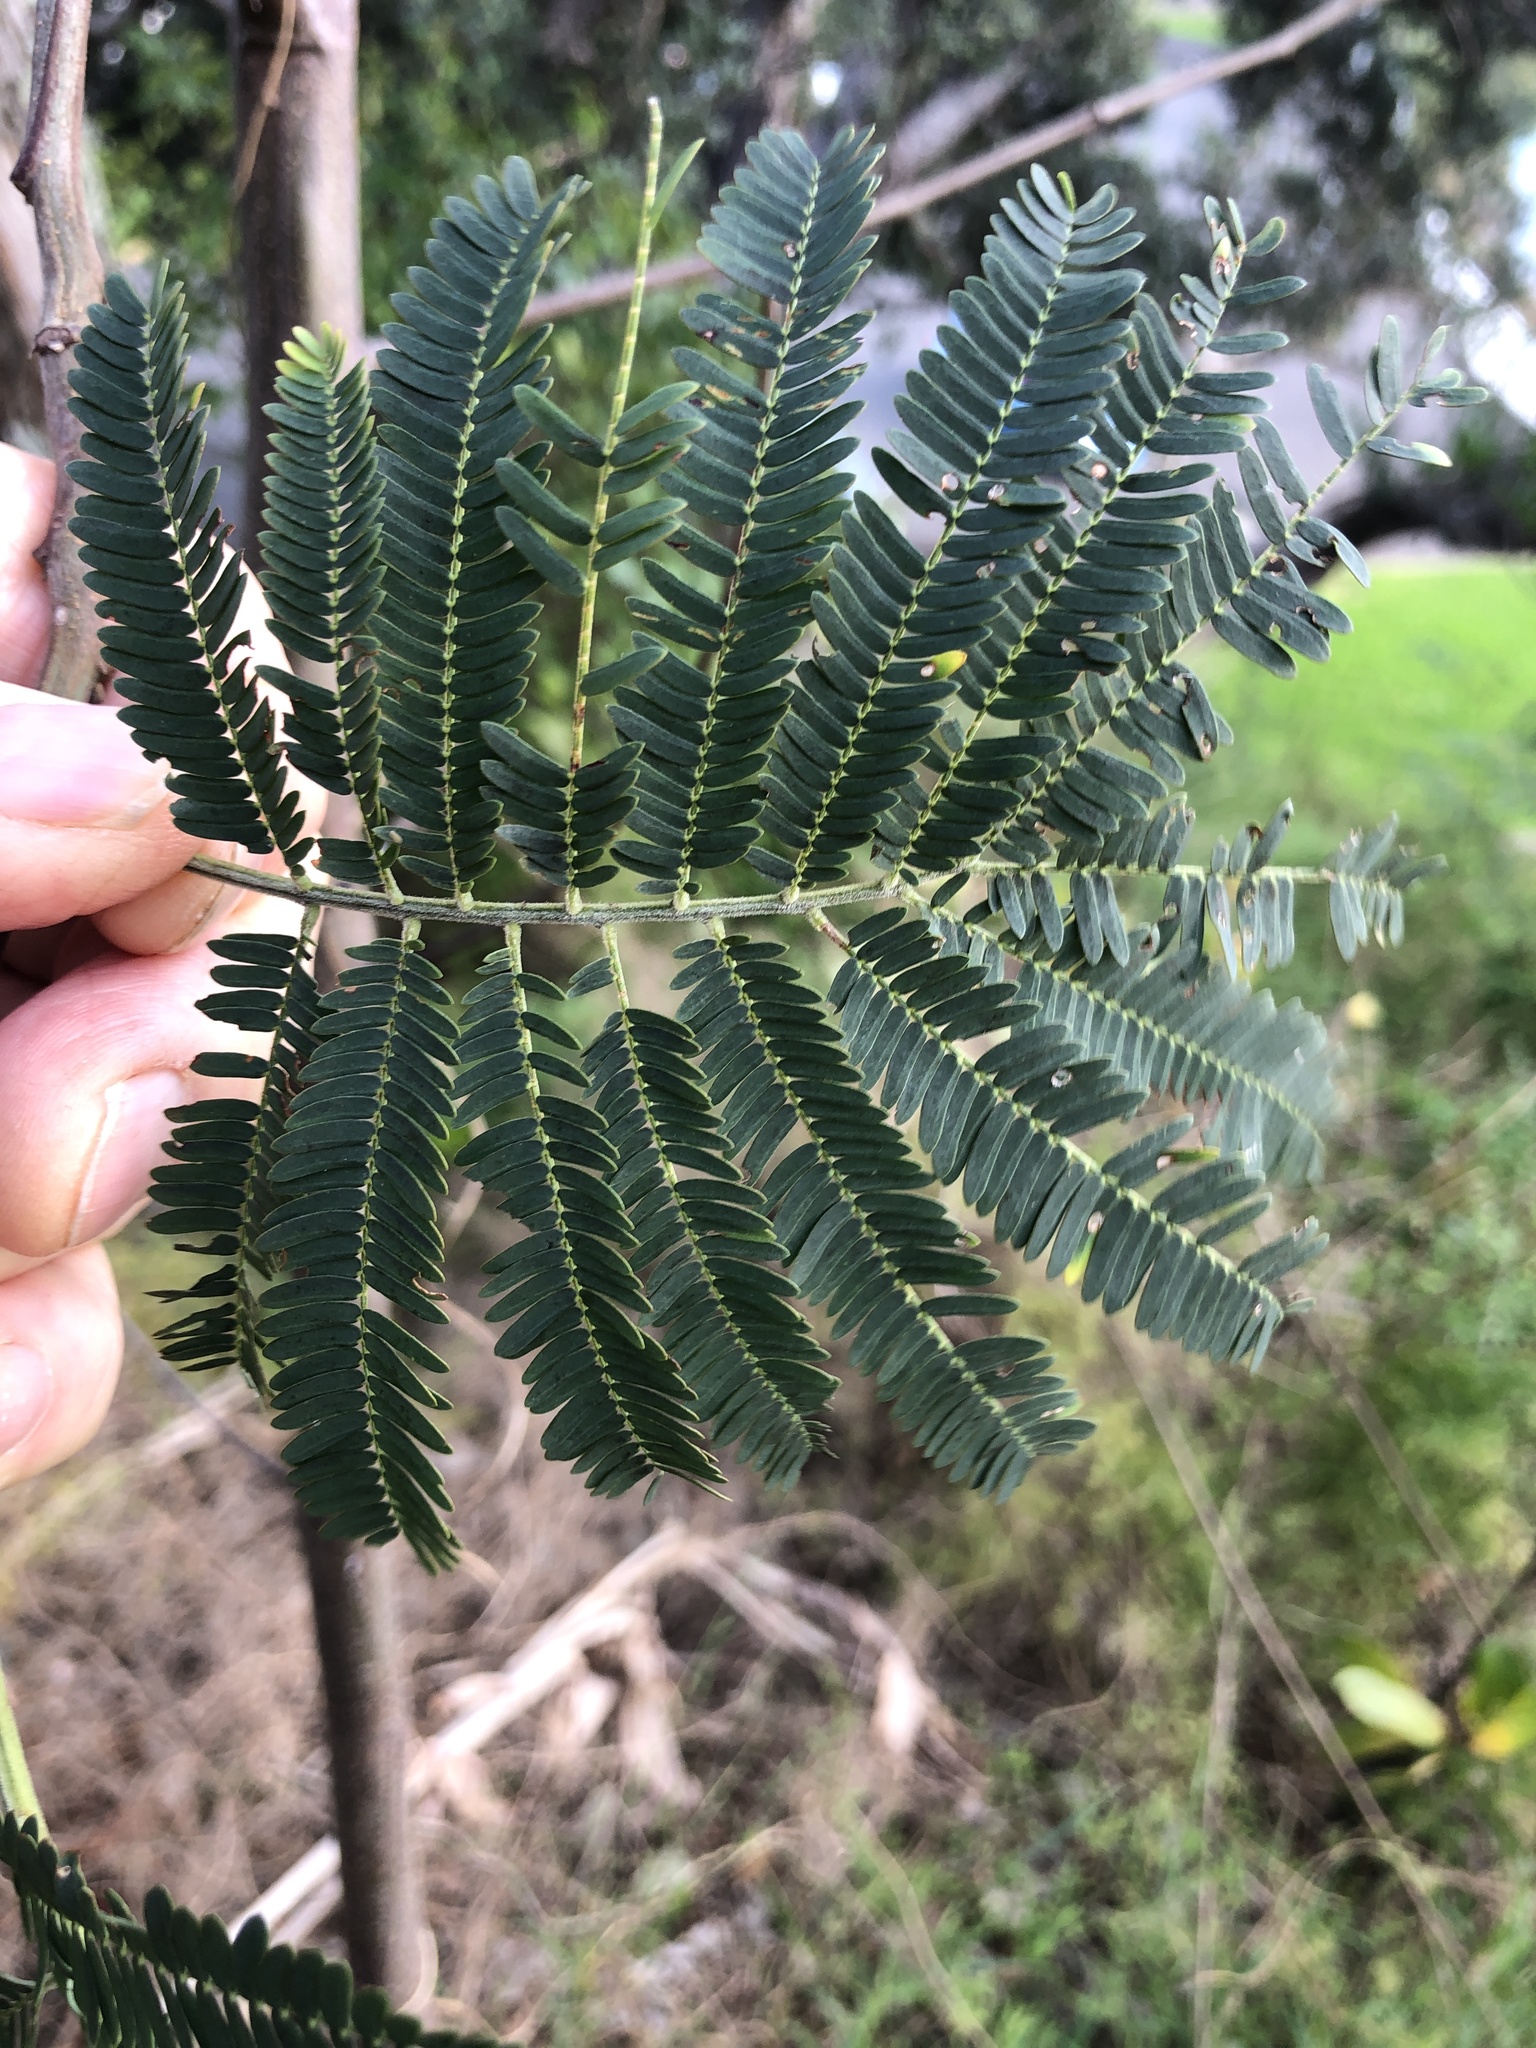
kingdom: Plantae
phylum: Tracheophyta
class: Magnoliopsida
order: Fabales
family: Fabaceae
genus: Paraserianthes
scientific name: Paraserianthes lophantha
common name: Plume albizia
